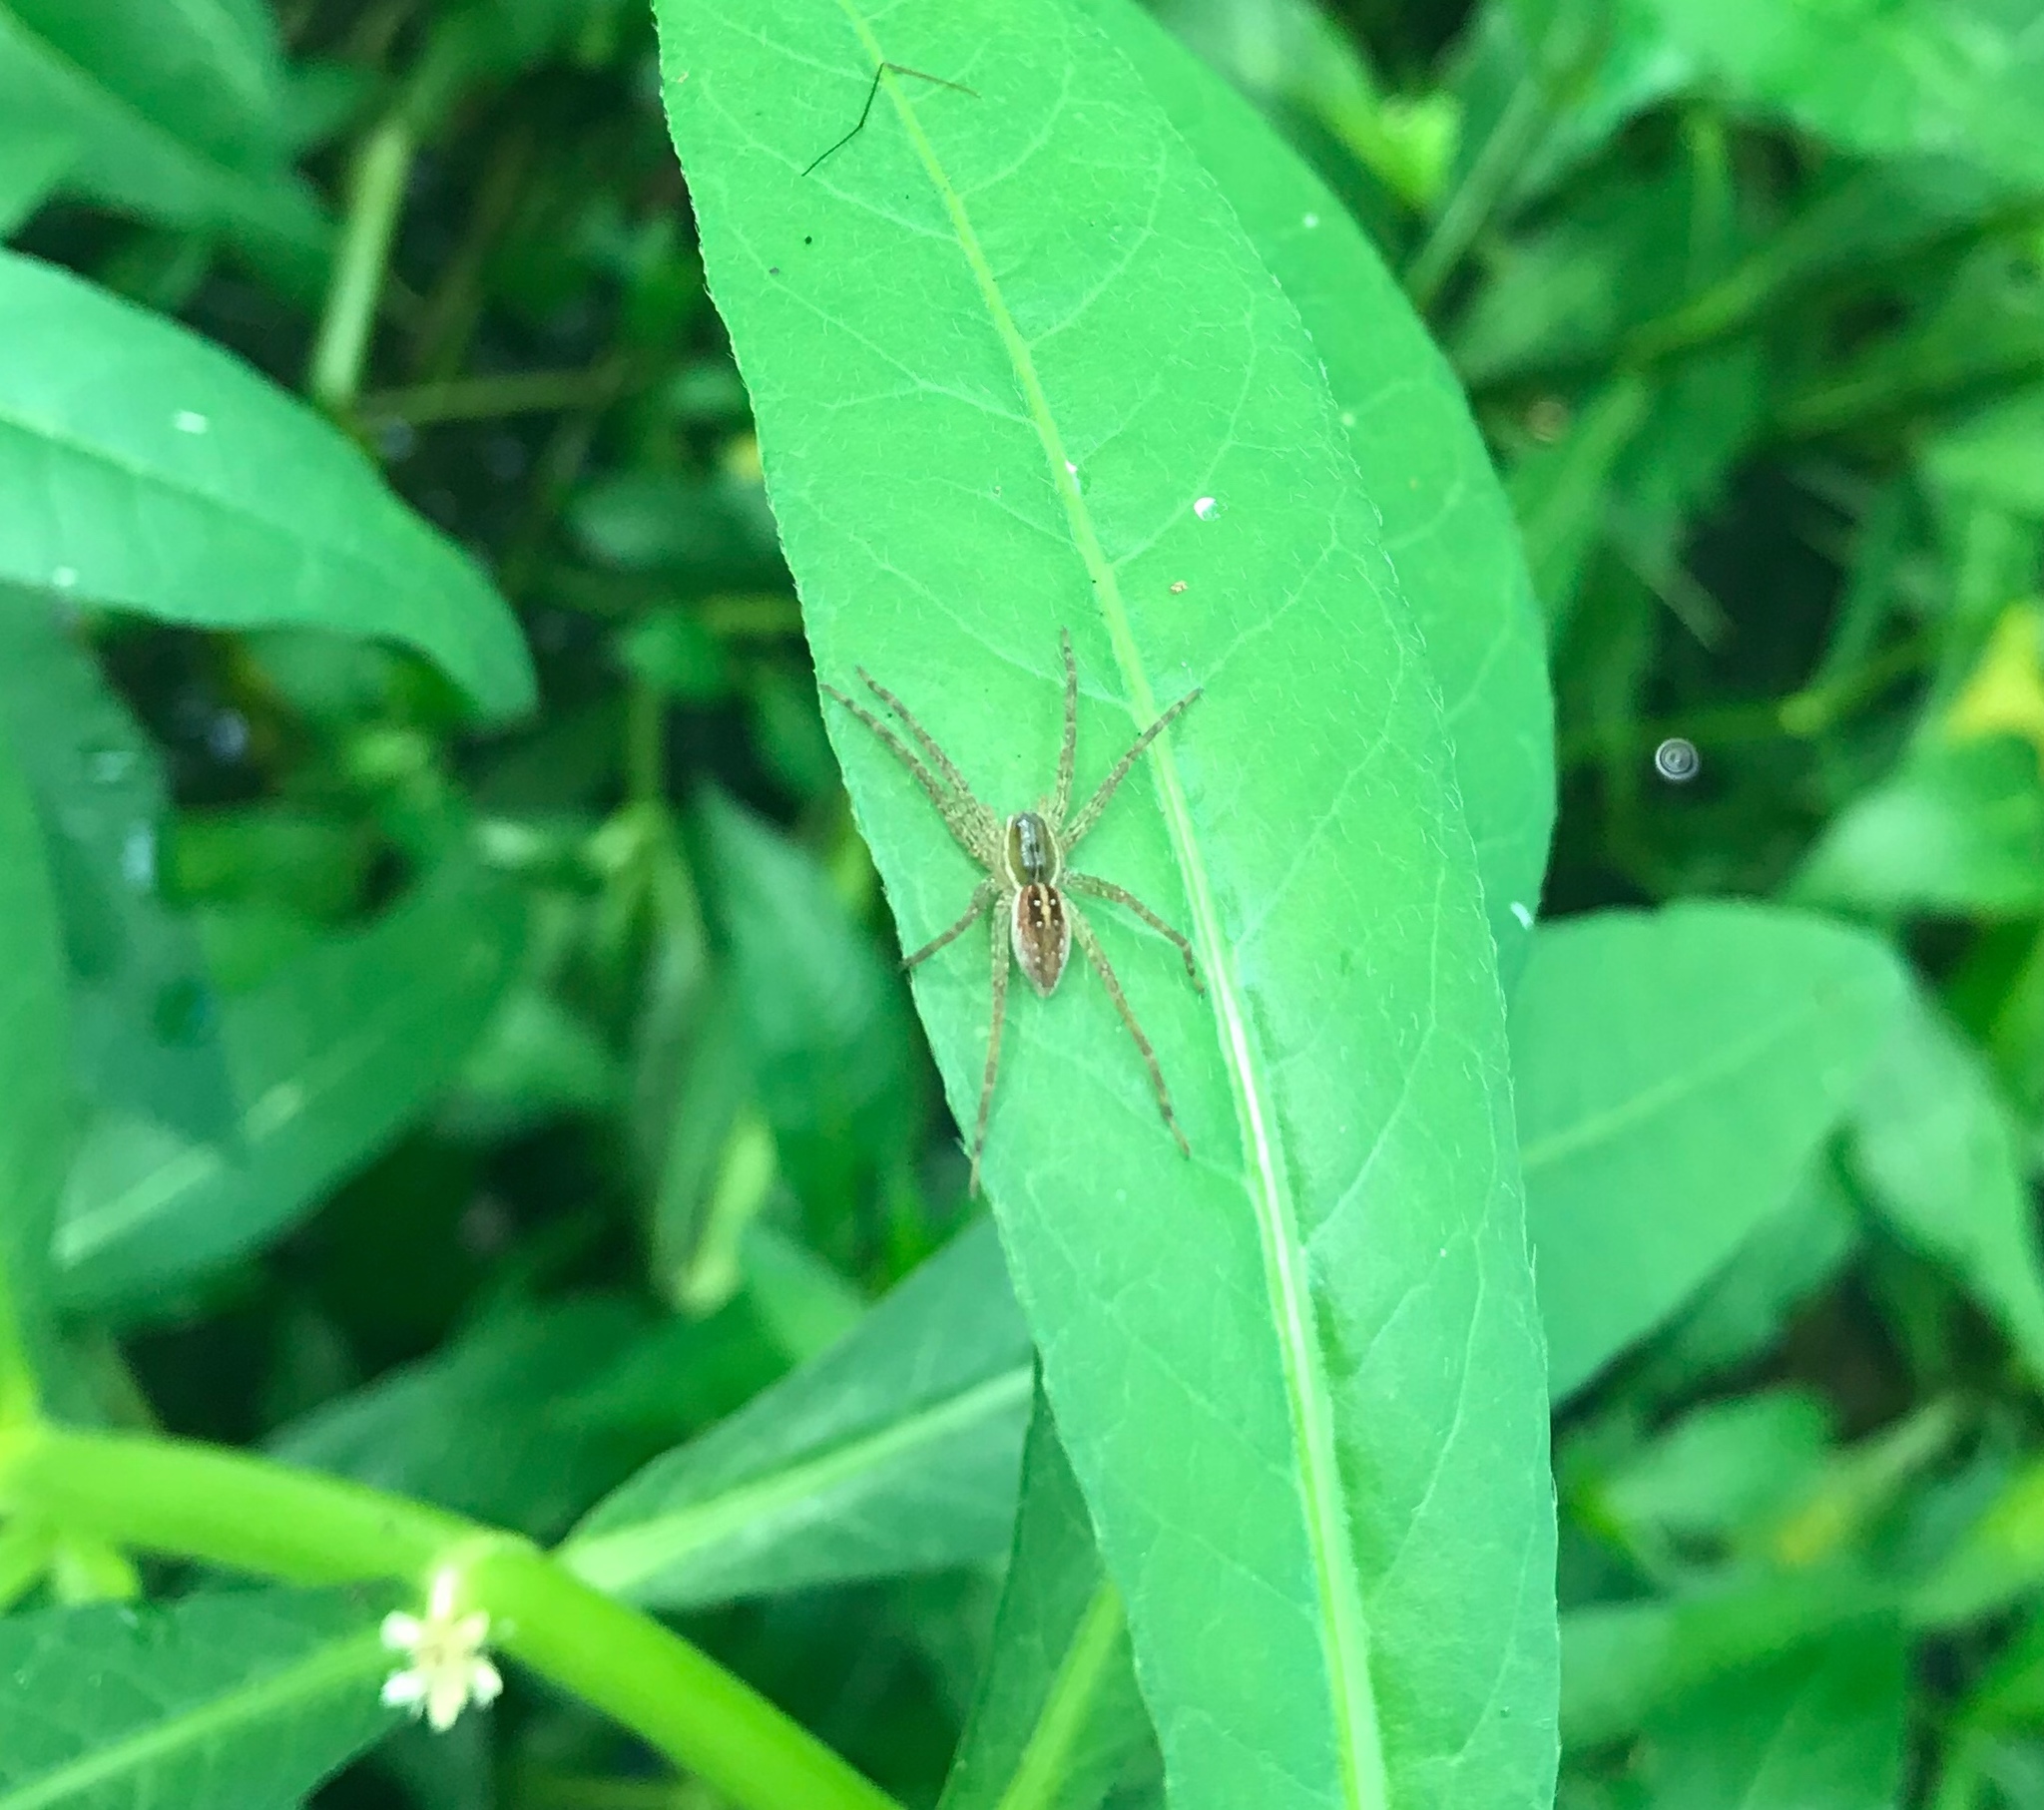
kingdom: Animalia
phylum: Arthropoda
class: Arachnida
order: Araneae
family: Pisauridae
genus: Dolomedes
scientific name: Dolomedes triton
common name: Six-spotted fishing spider
